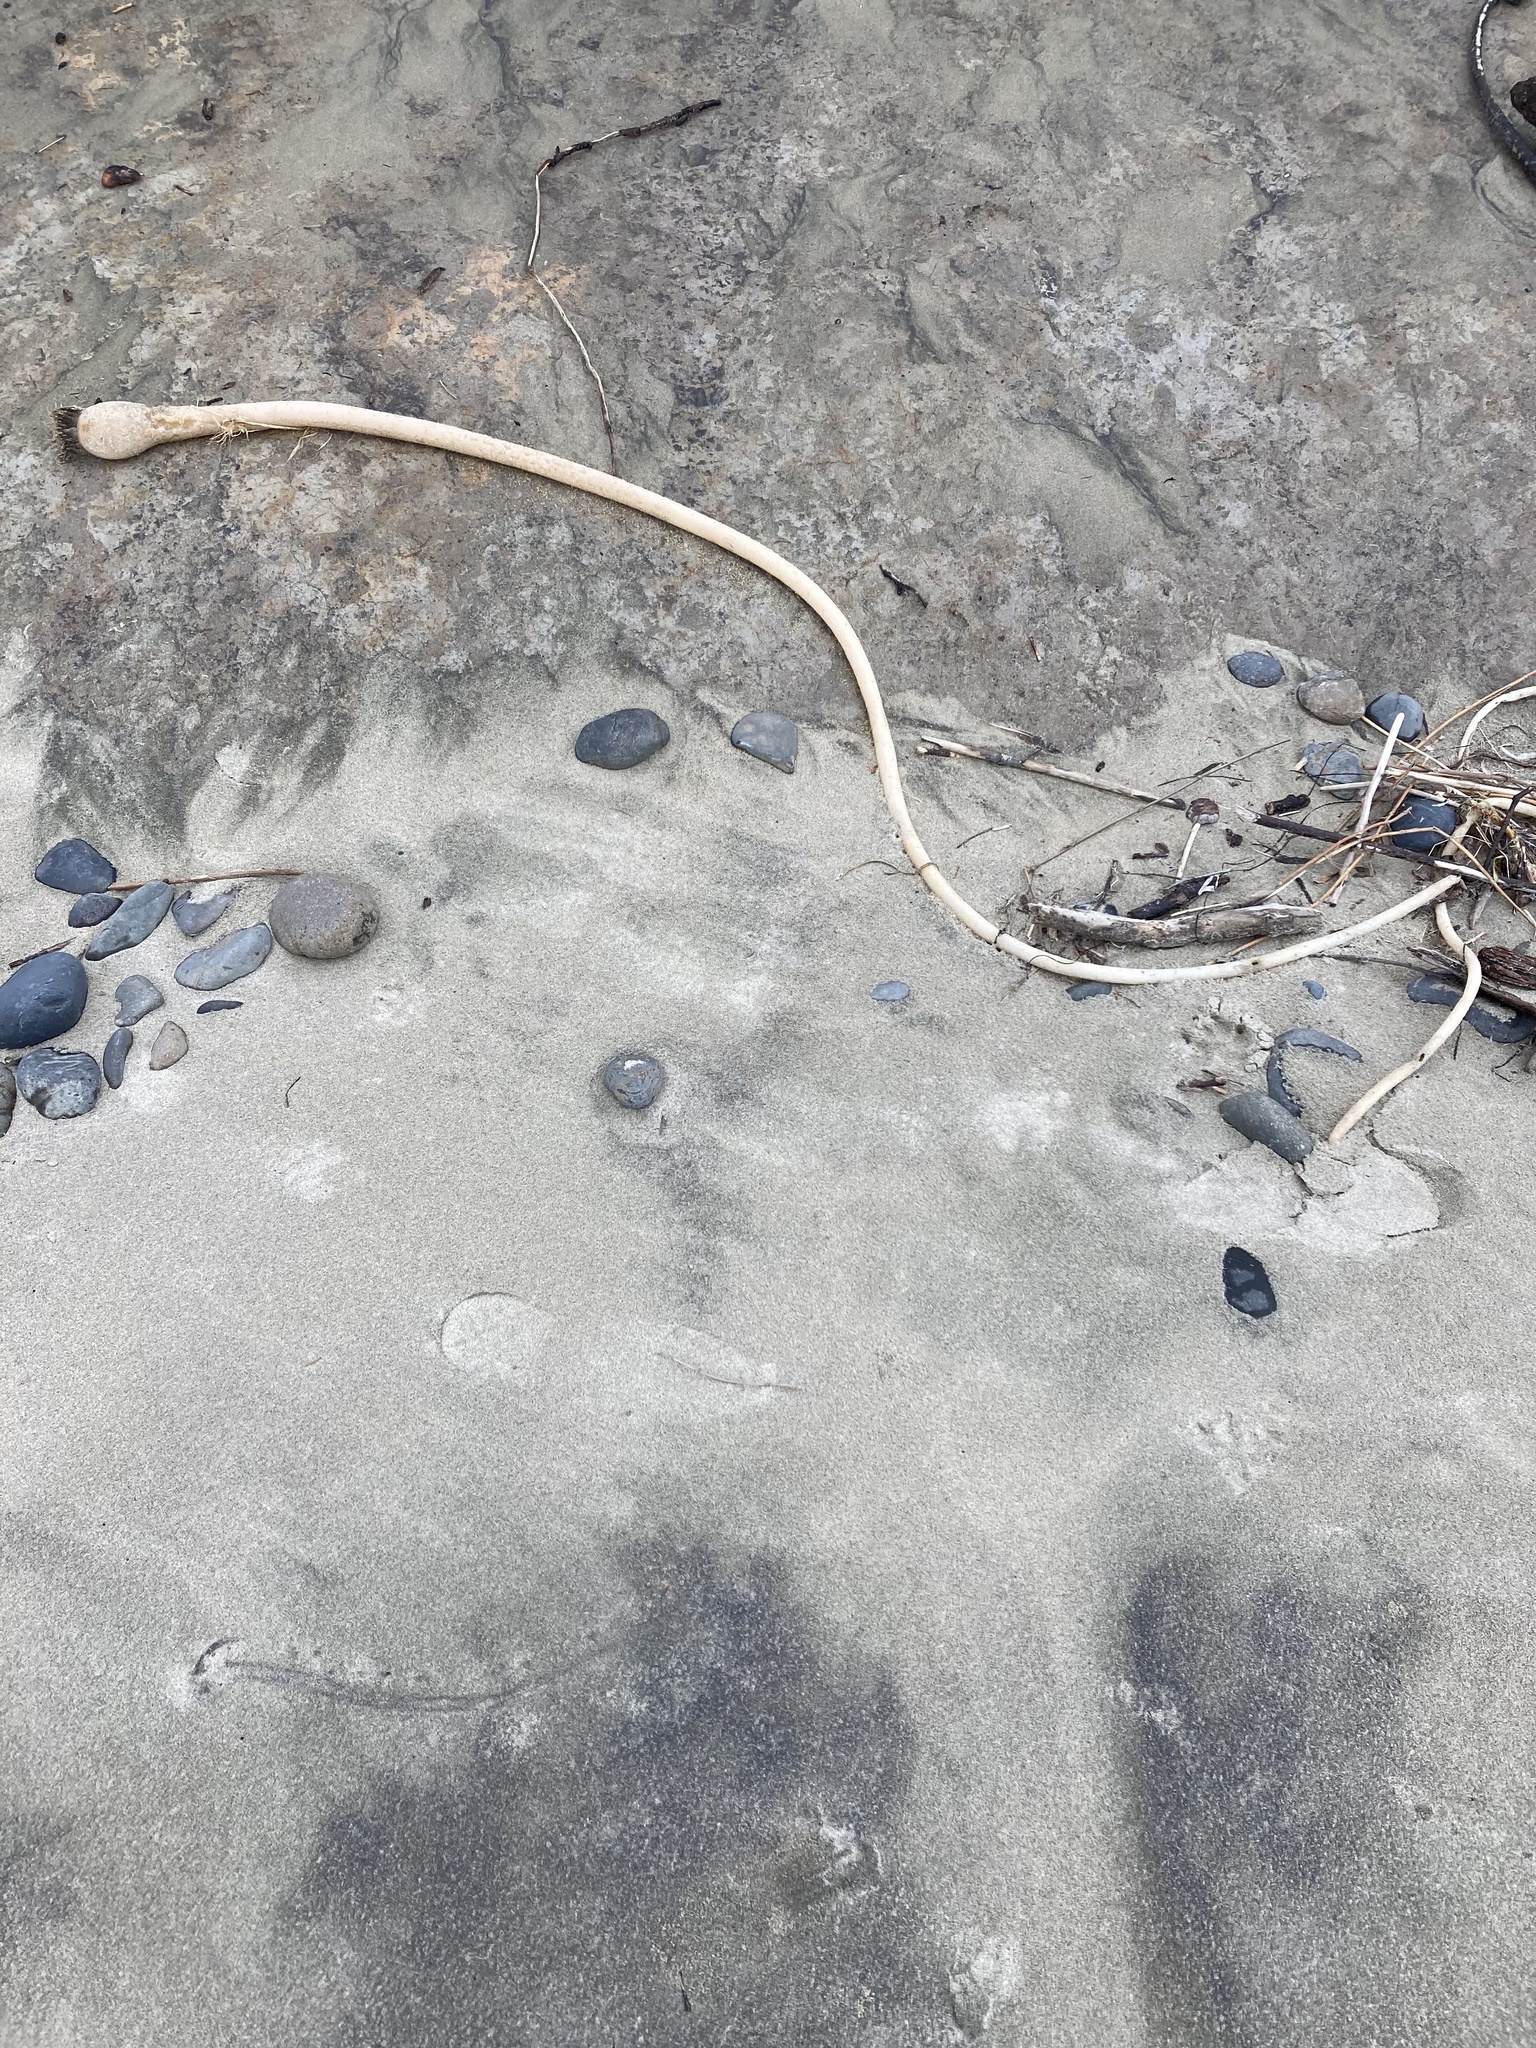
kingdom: Chromista
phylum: Ochrophyta
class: Phaeophyceae
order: Laminariales
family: Laminariaceae
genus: Nereocystis
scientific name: Nereocystis luetkeana
